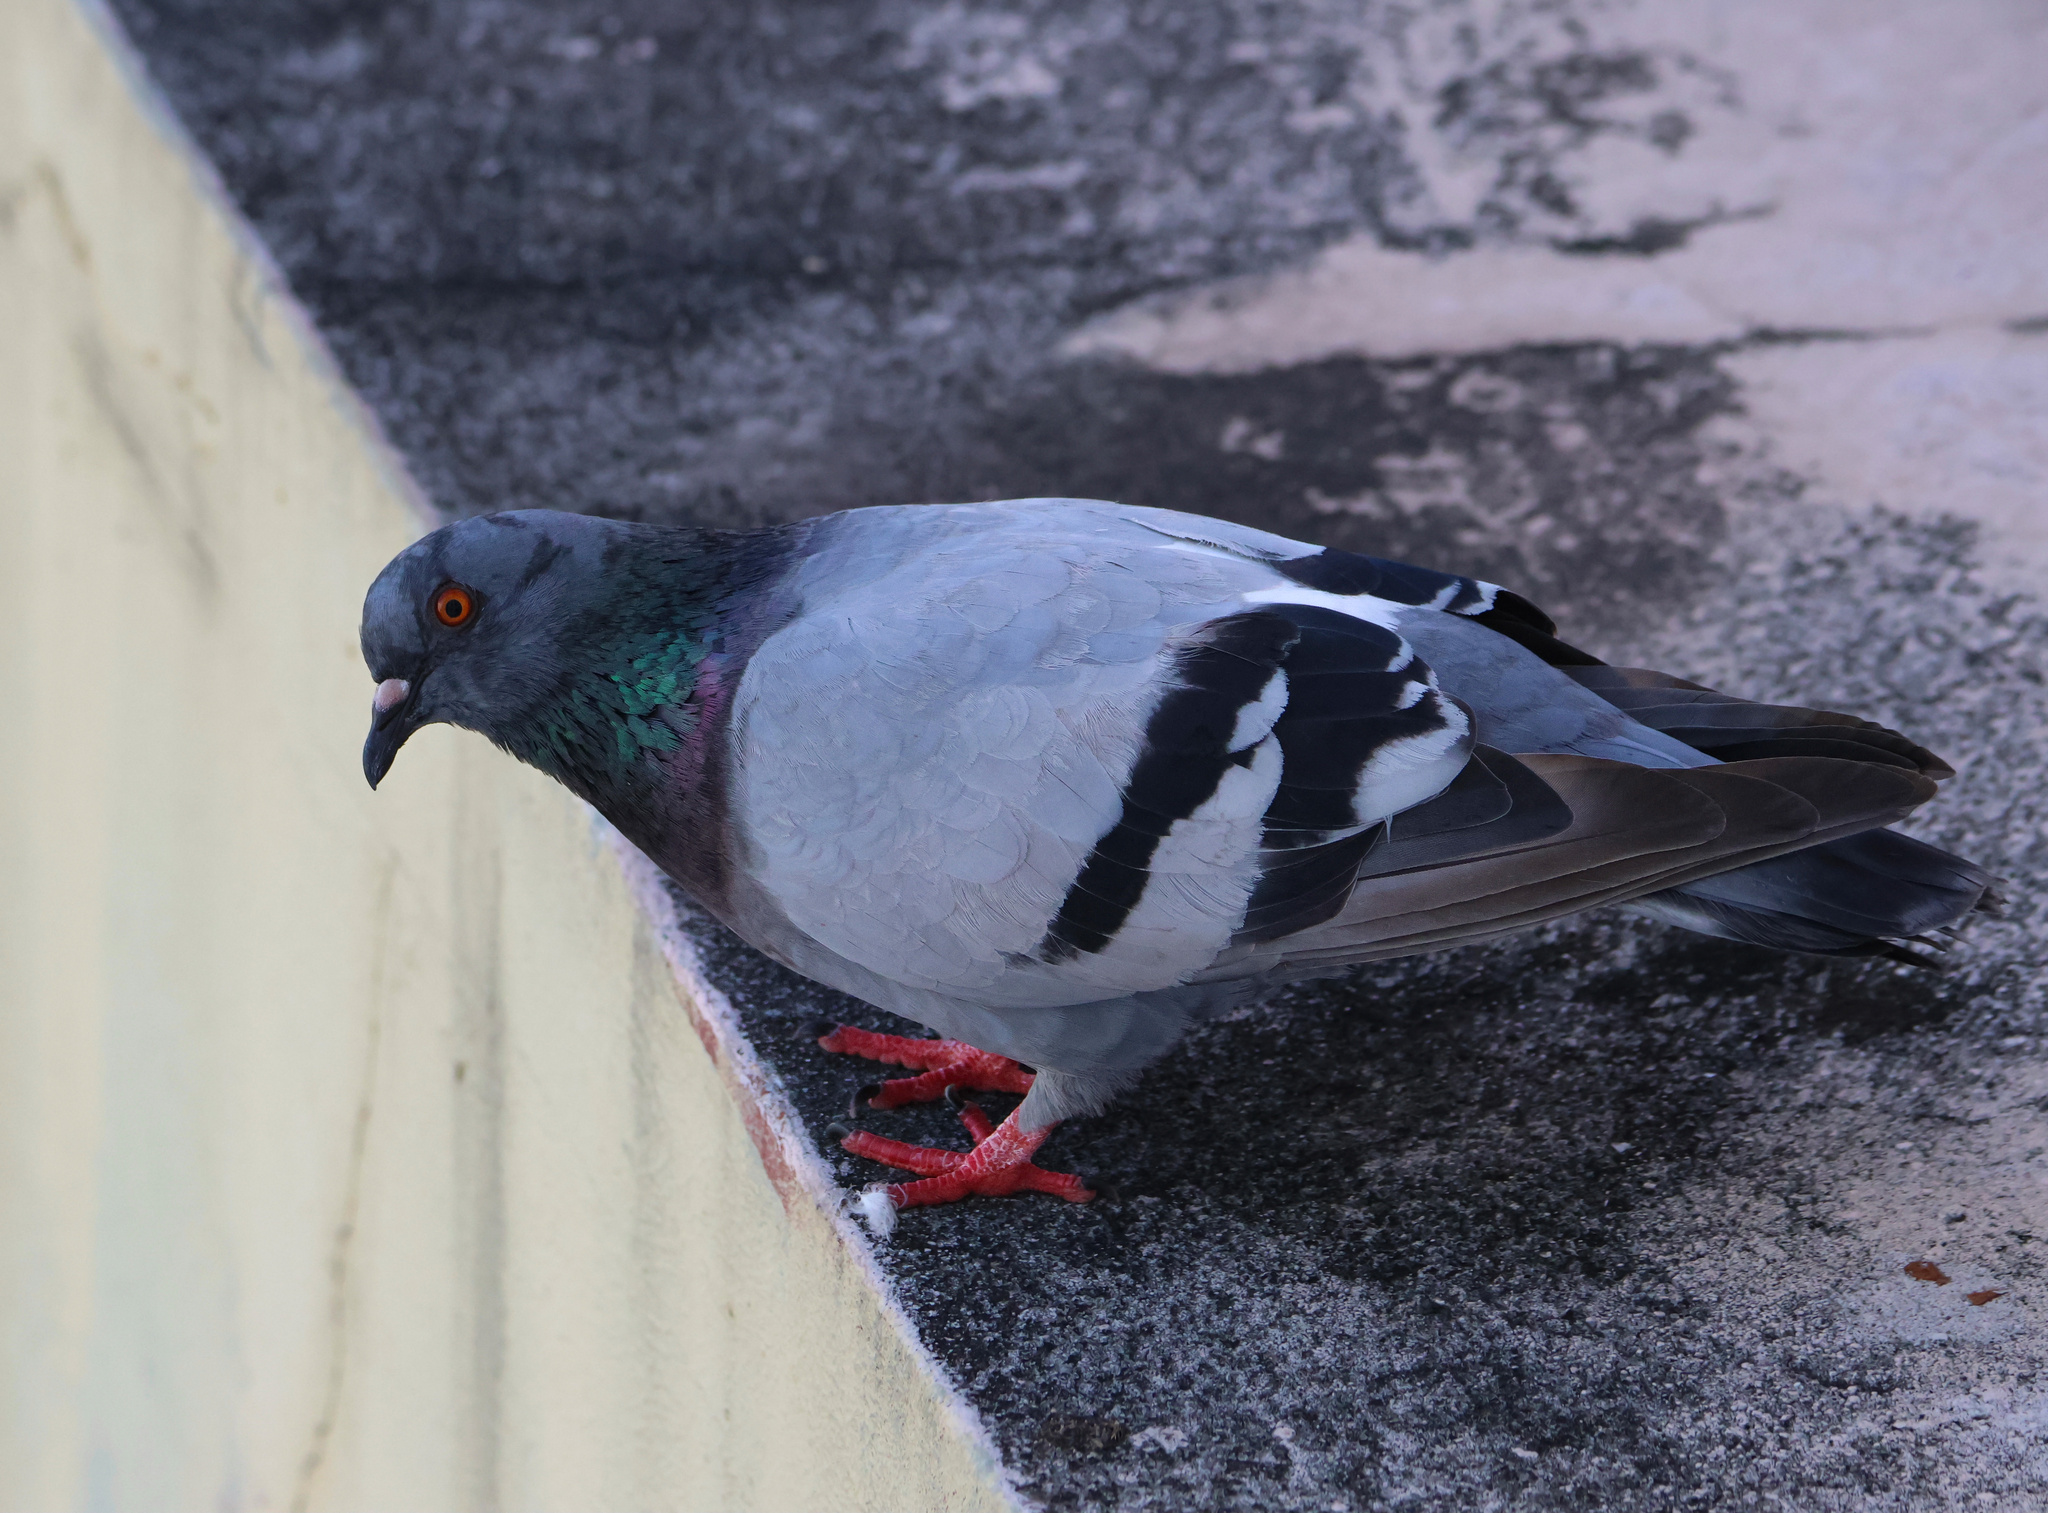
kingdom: Animalia
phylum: Chordata
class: Aves
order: Columbiformes
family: Columbidae
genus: Columba
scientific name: Columba livia
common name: Rock pigeon
